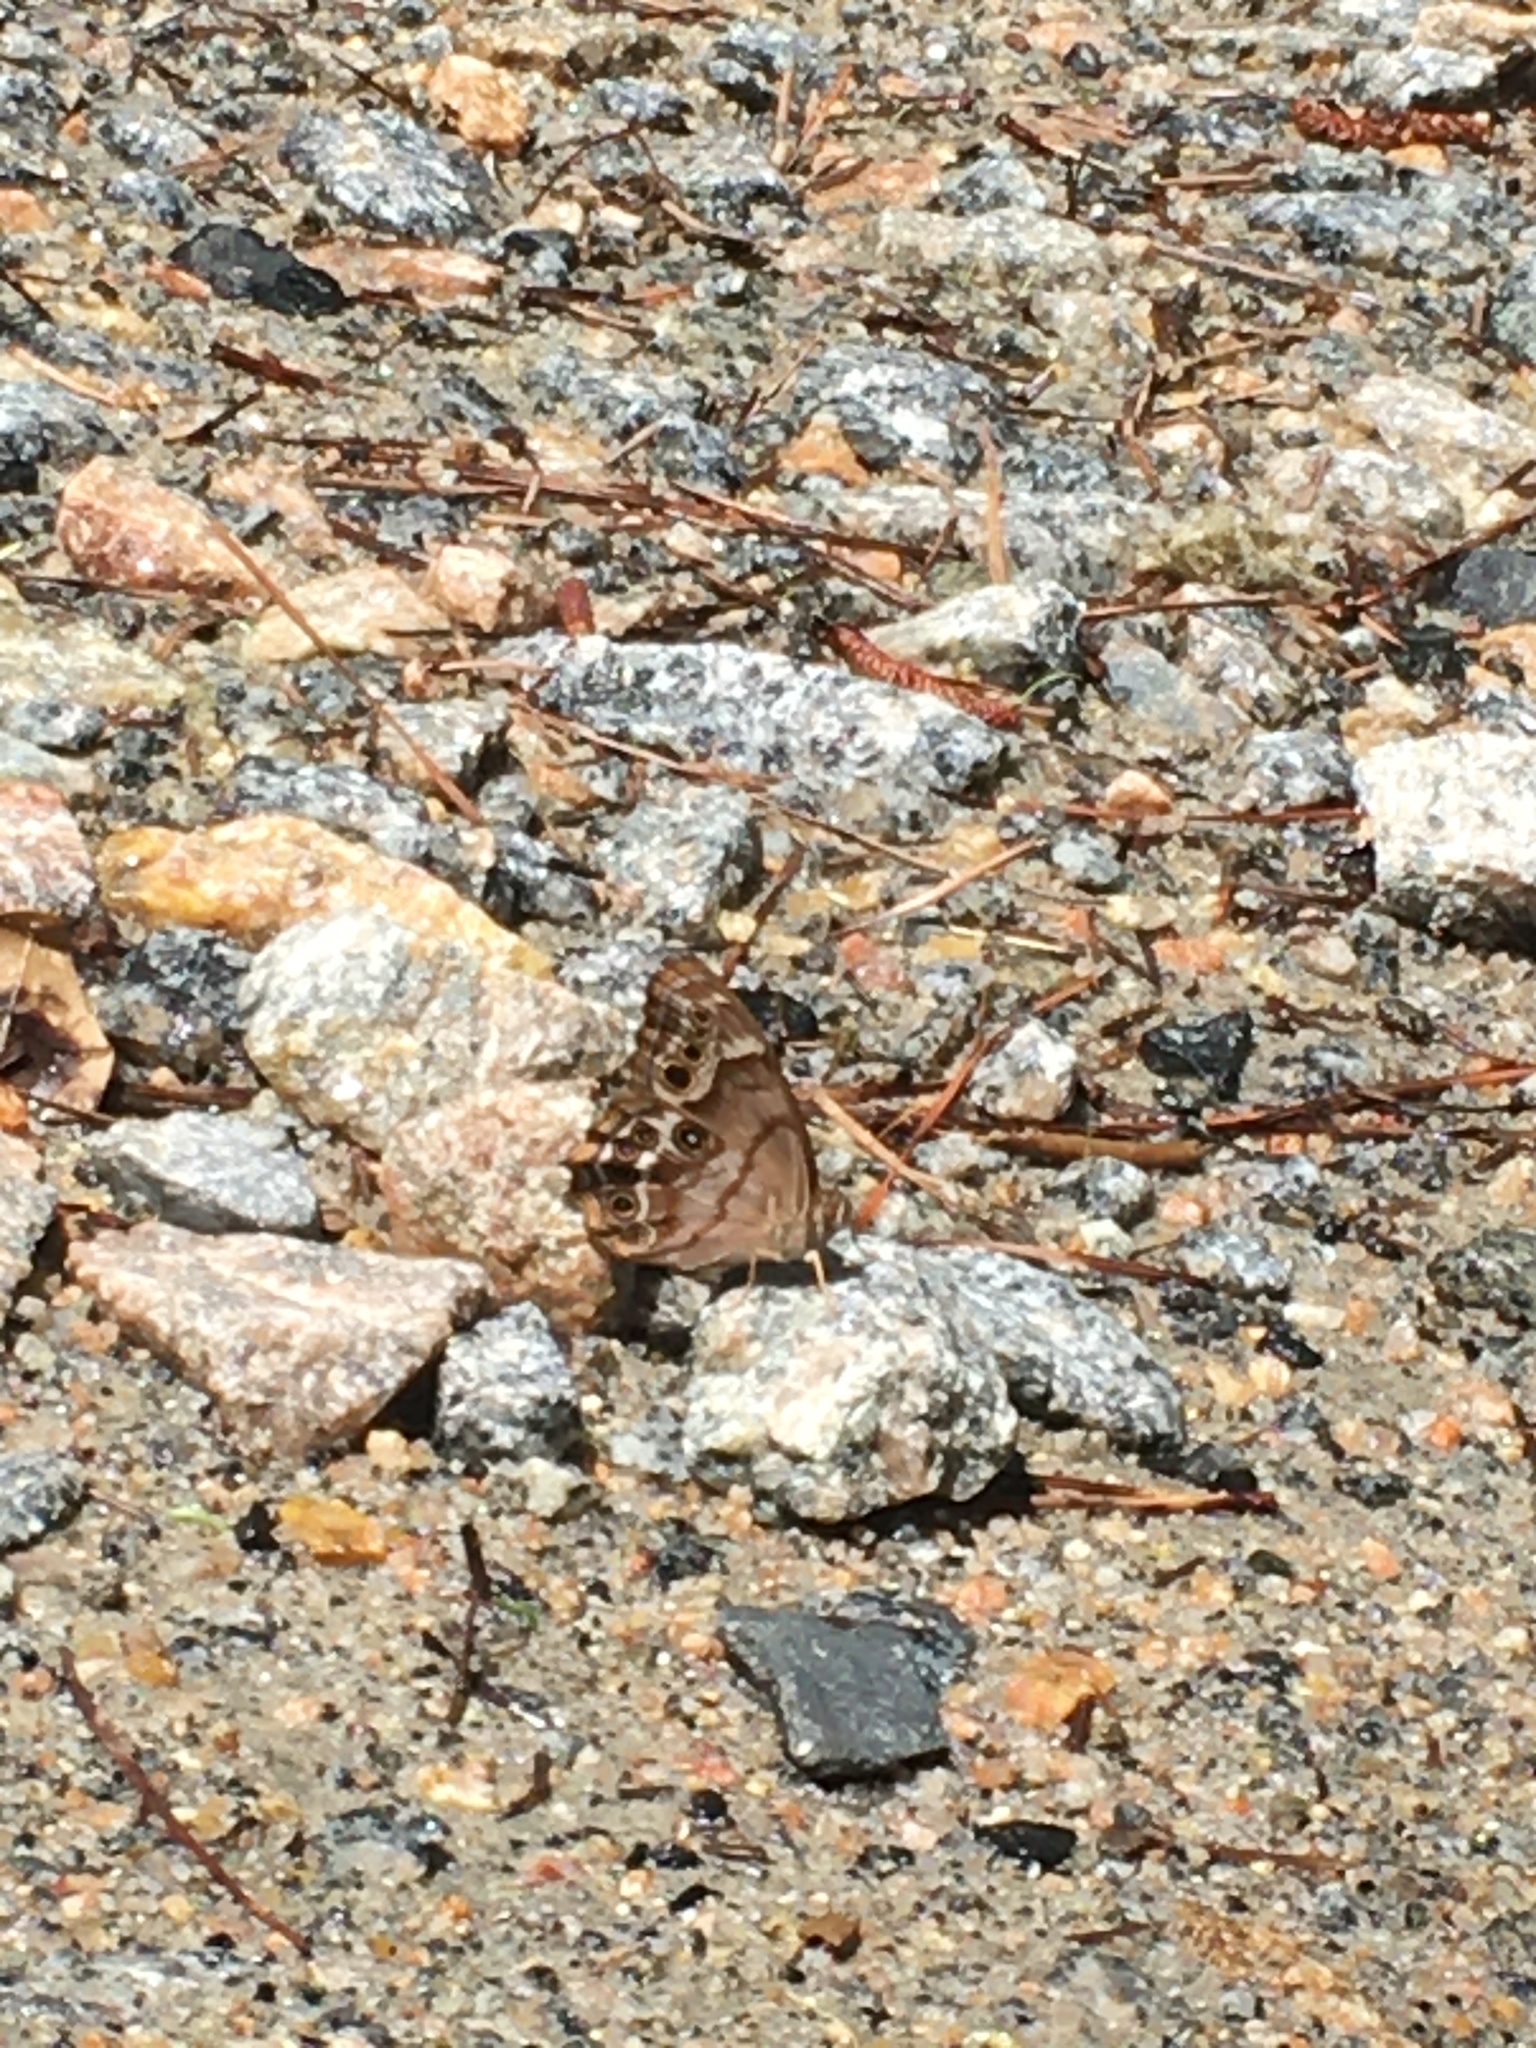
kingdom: Animalia
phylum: Arthropoda
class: Insecta
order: Lepidoptera
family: Nymphalidae
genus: Enodia
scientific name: Enodia portlandia
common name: Southern pearly-eye
